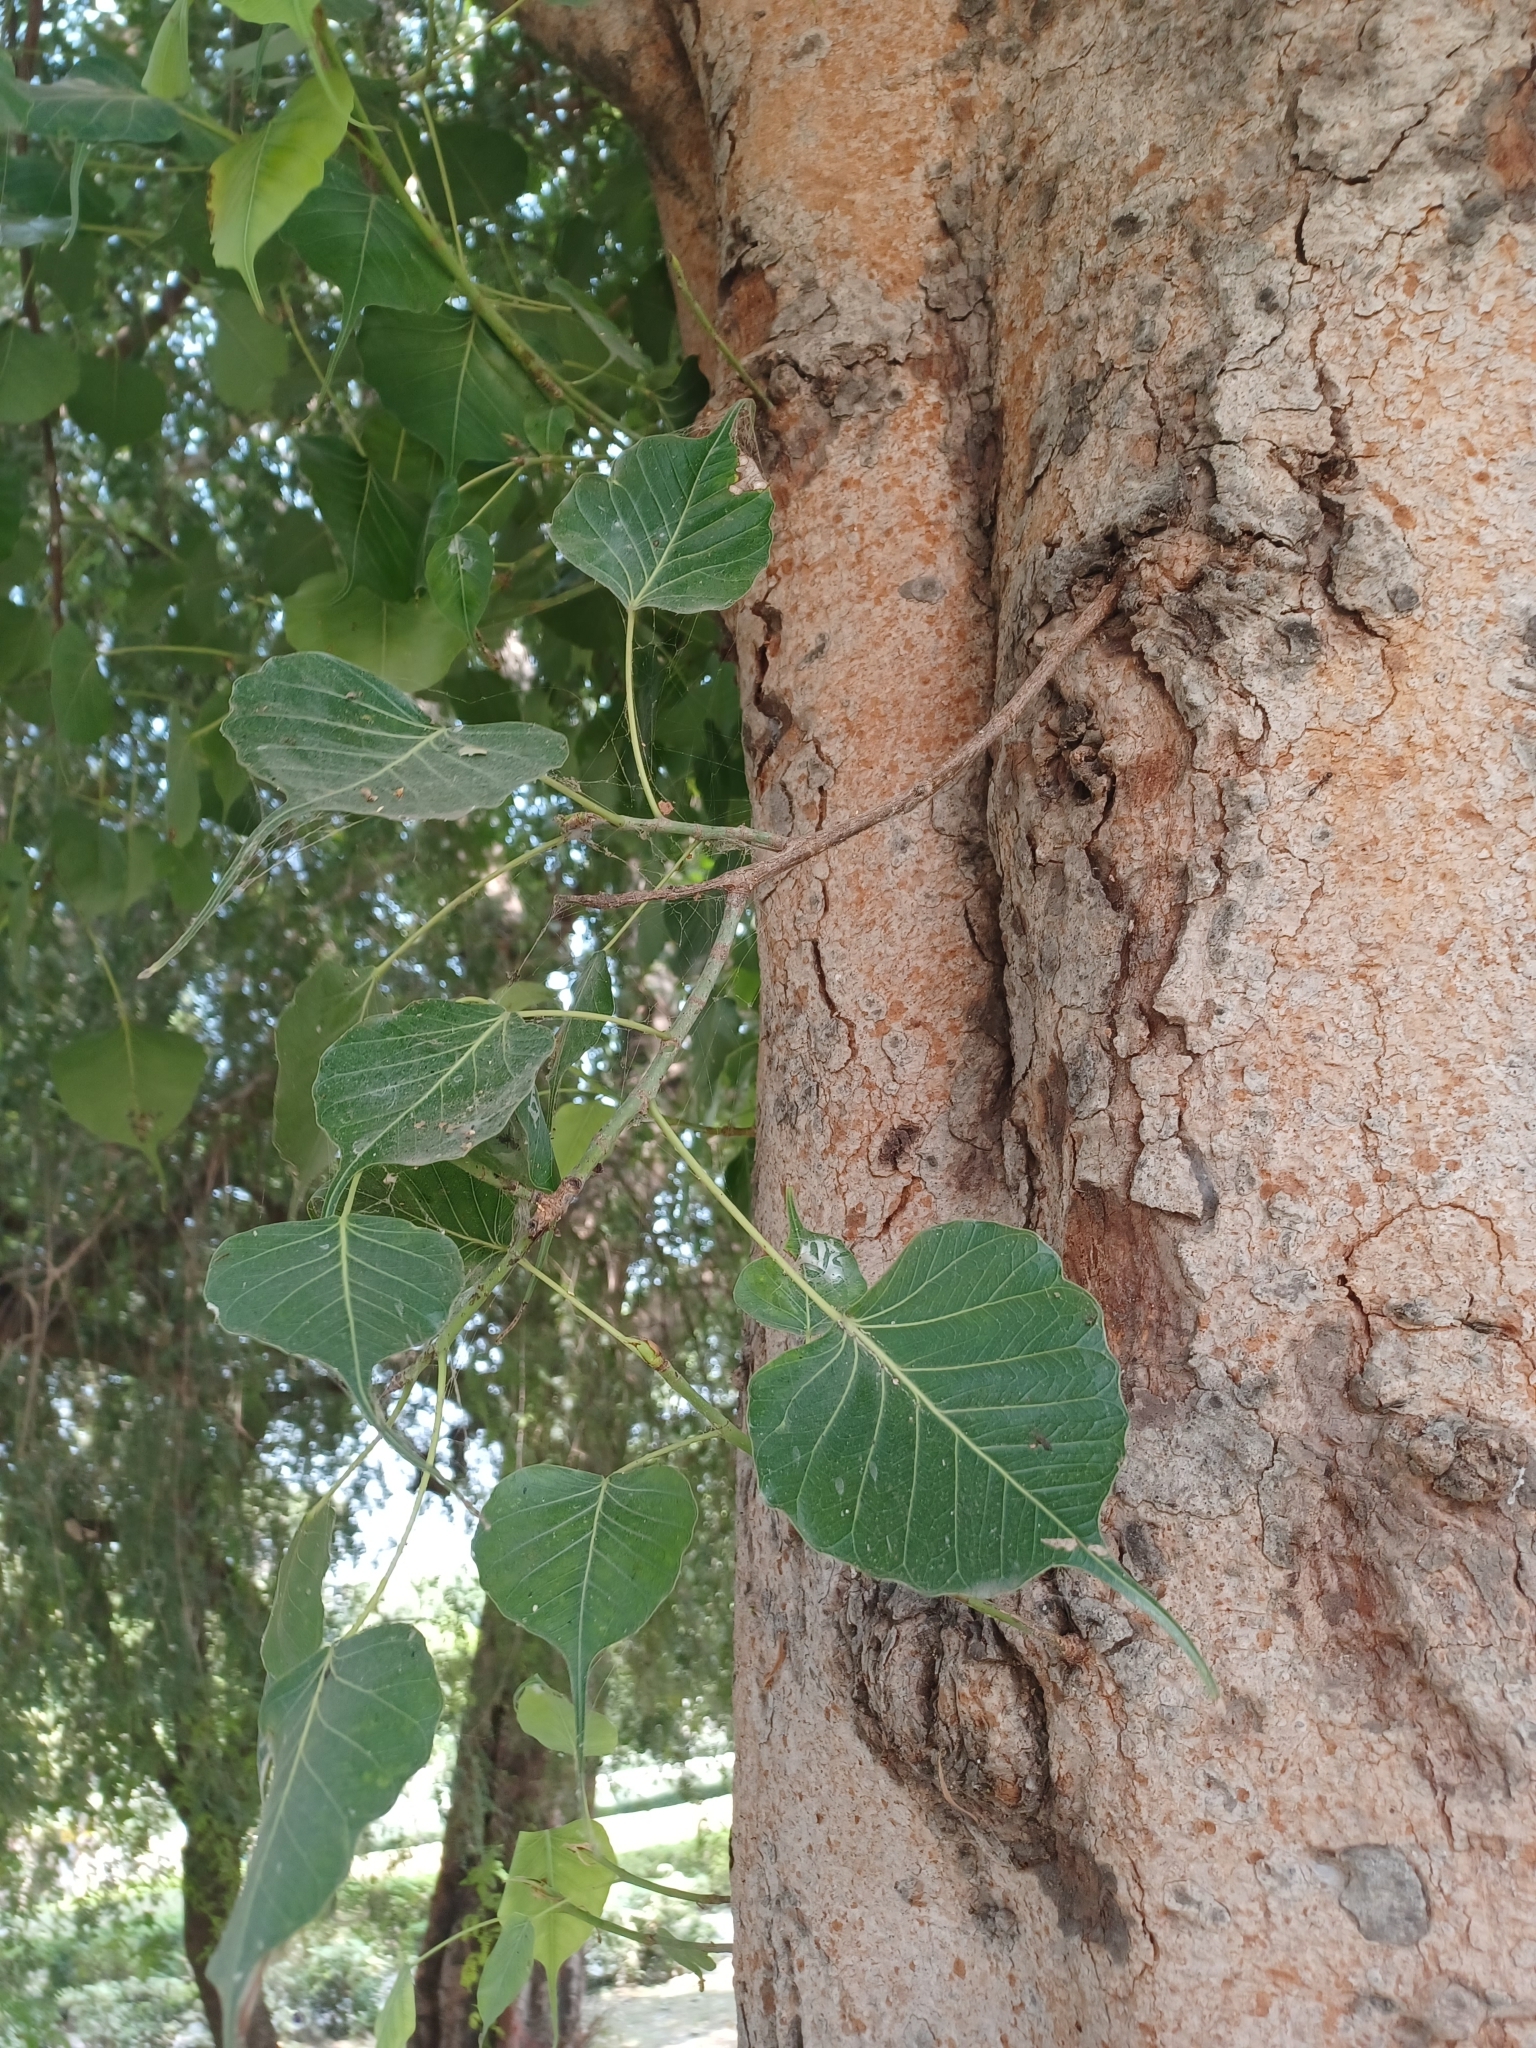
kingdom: Plantae
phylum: Tracheophyta
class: Magnoliopsida
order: Rosales
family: Moraceae
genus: Ficus
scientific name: Ficus religiosa
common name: Bodhi tree
